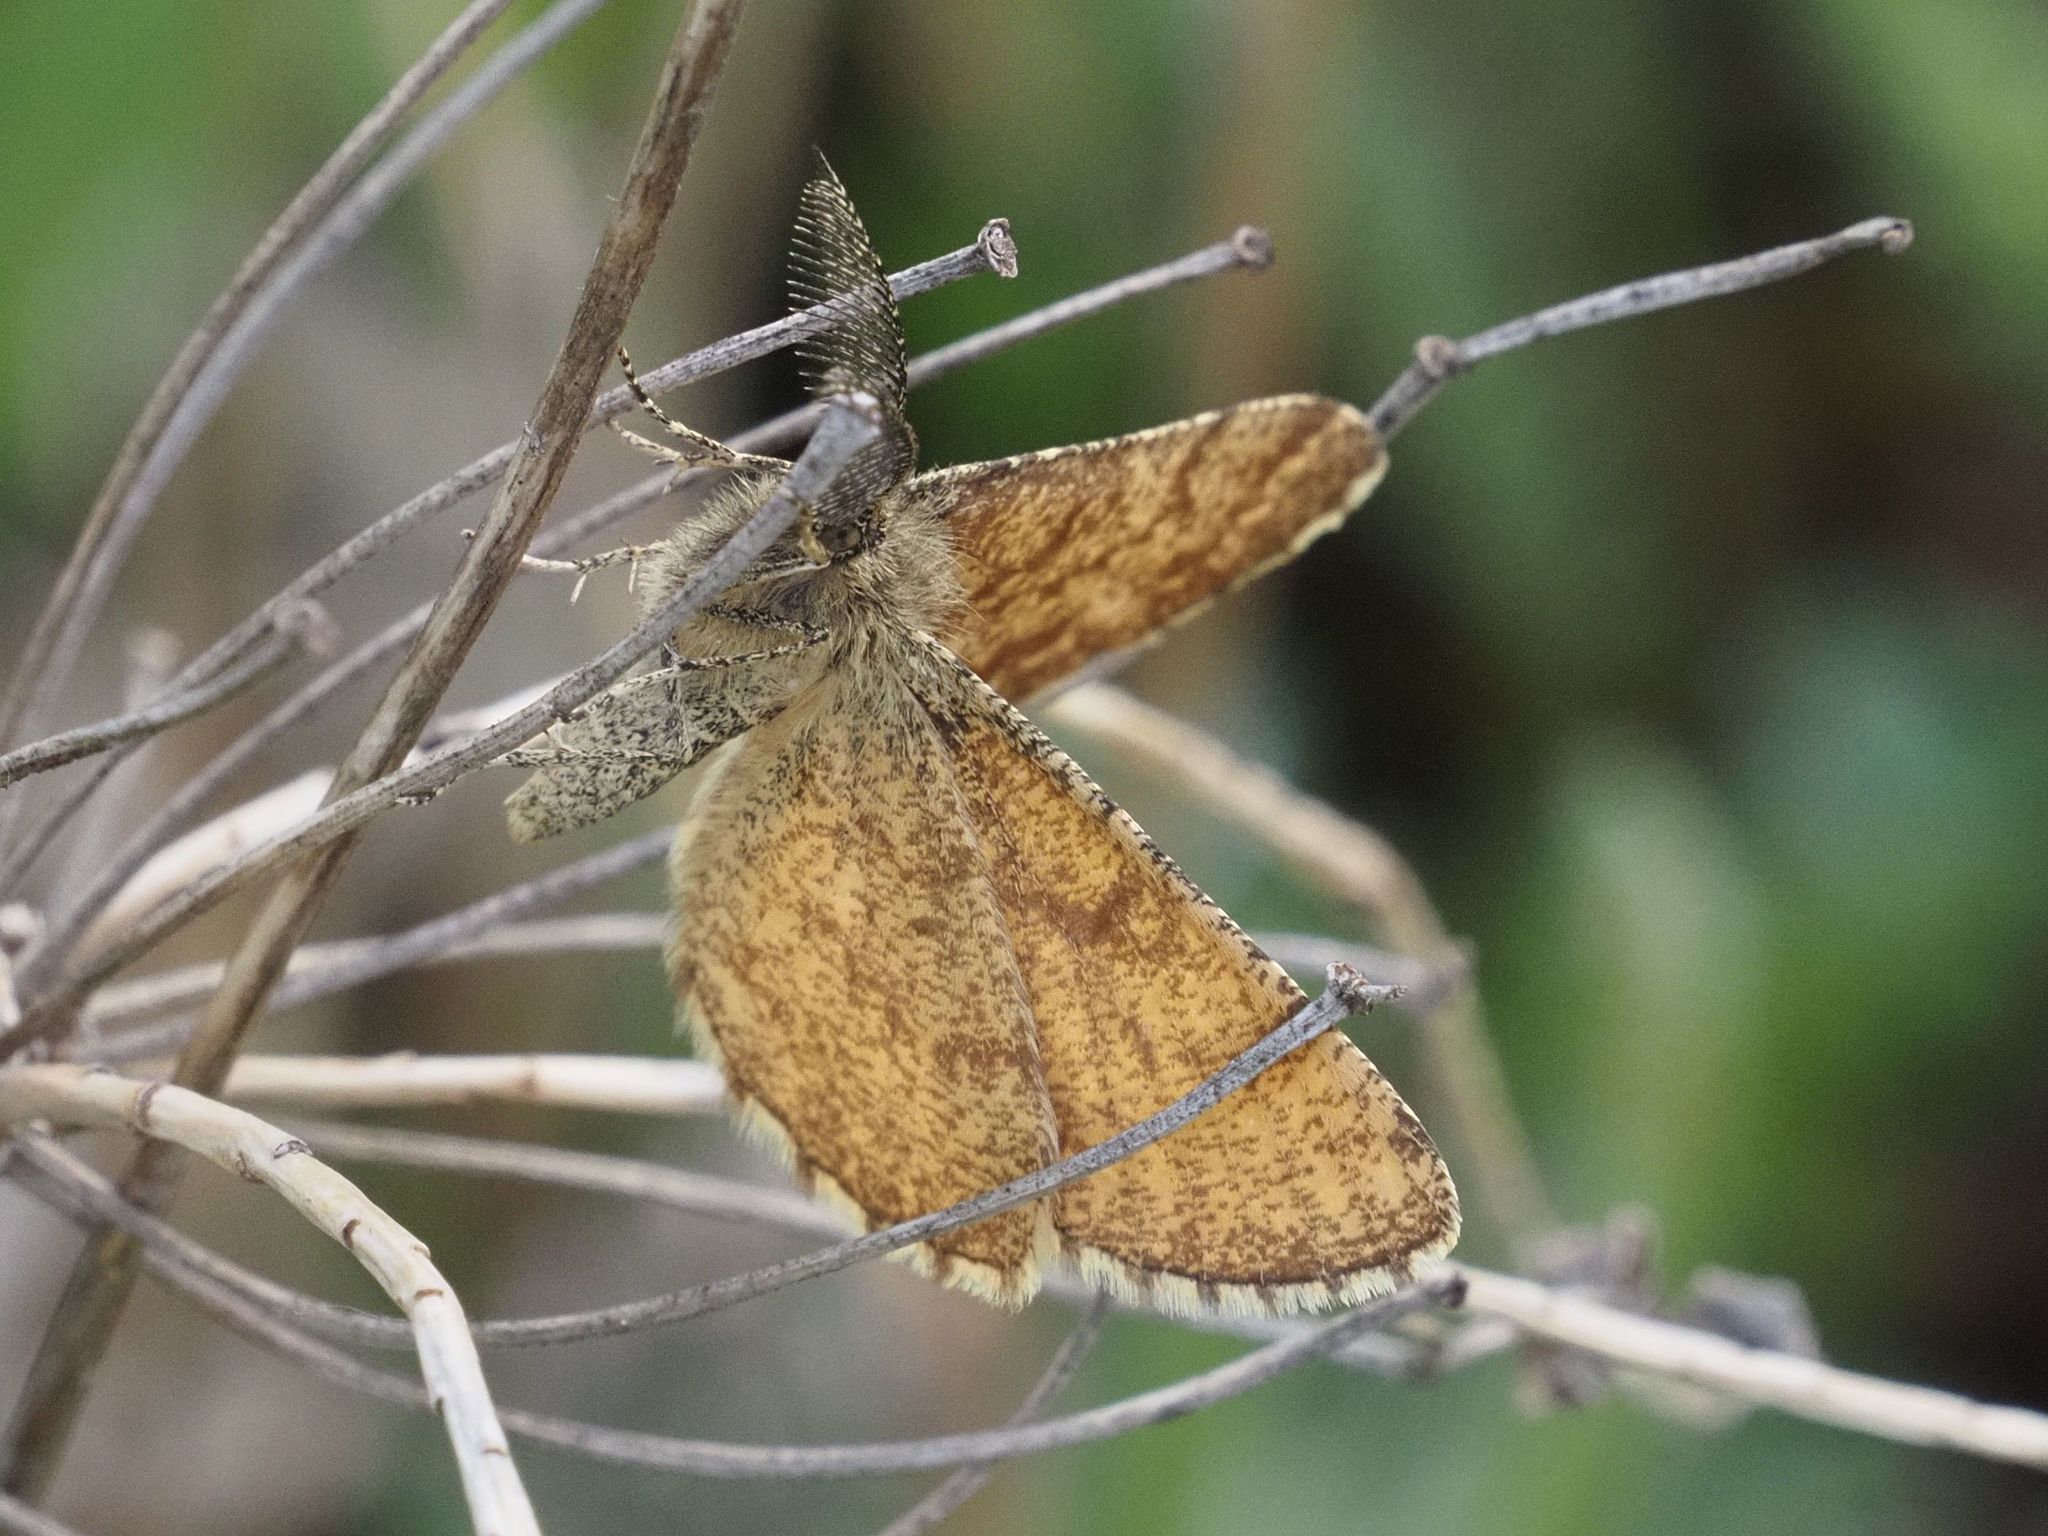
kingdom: Animalia
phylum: Arthropoda
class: Insecta
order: Lepidoptera
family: Geometridae
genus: Ematurga
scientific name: Ematurga atomaria
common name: Common heath
